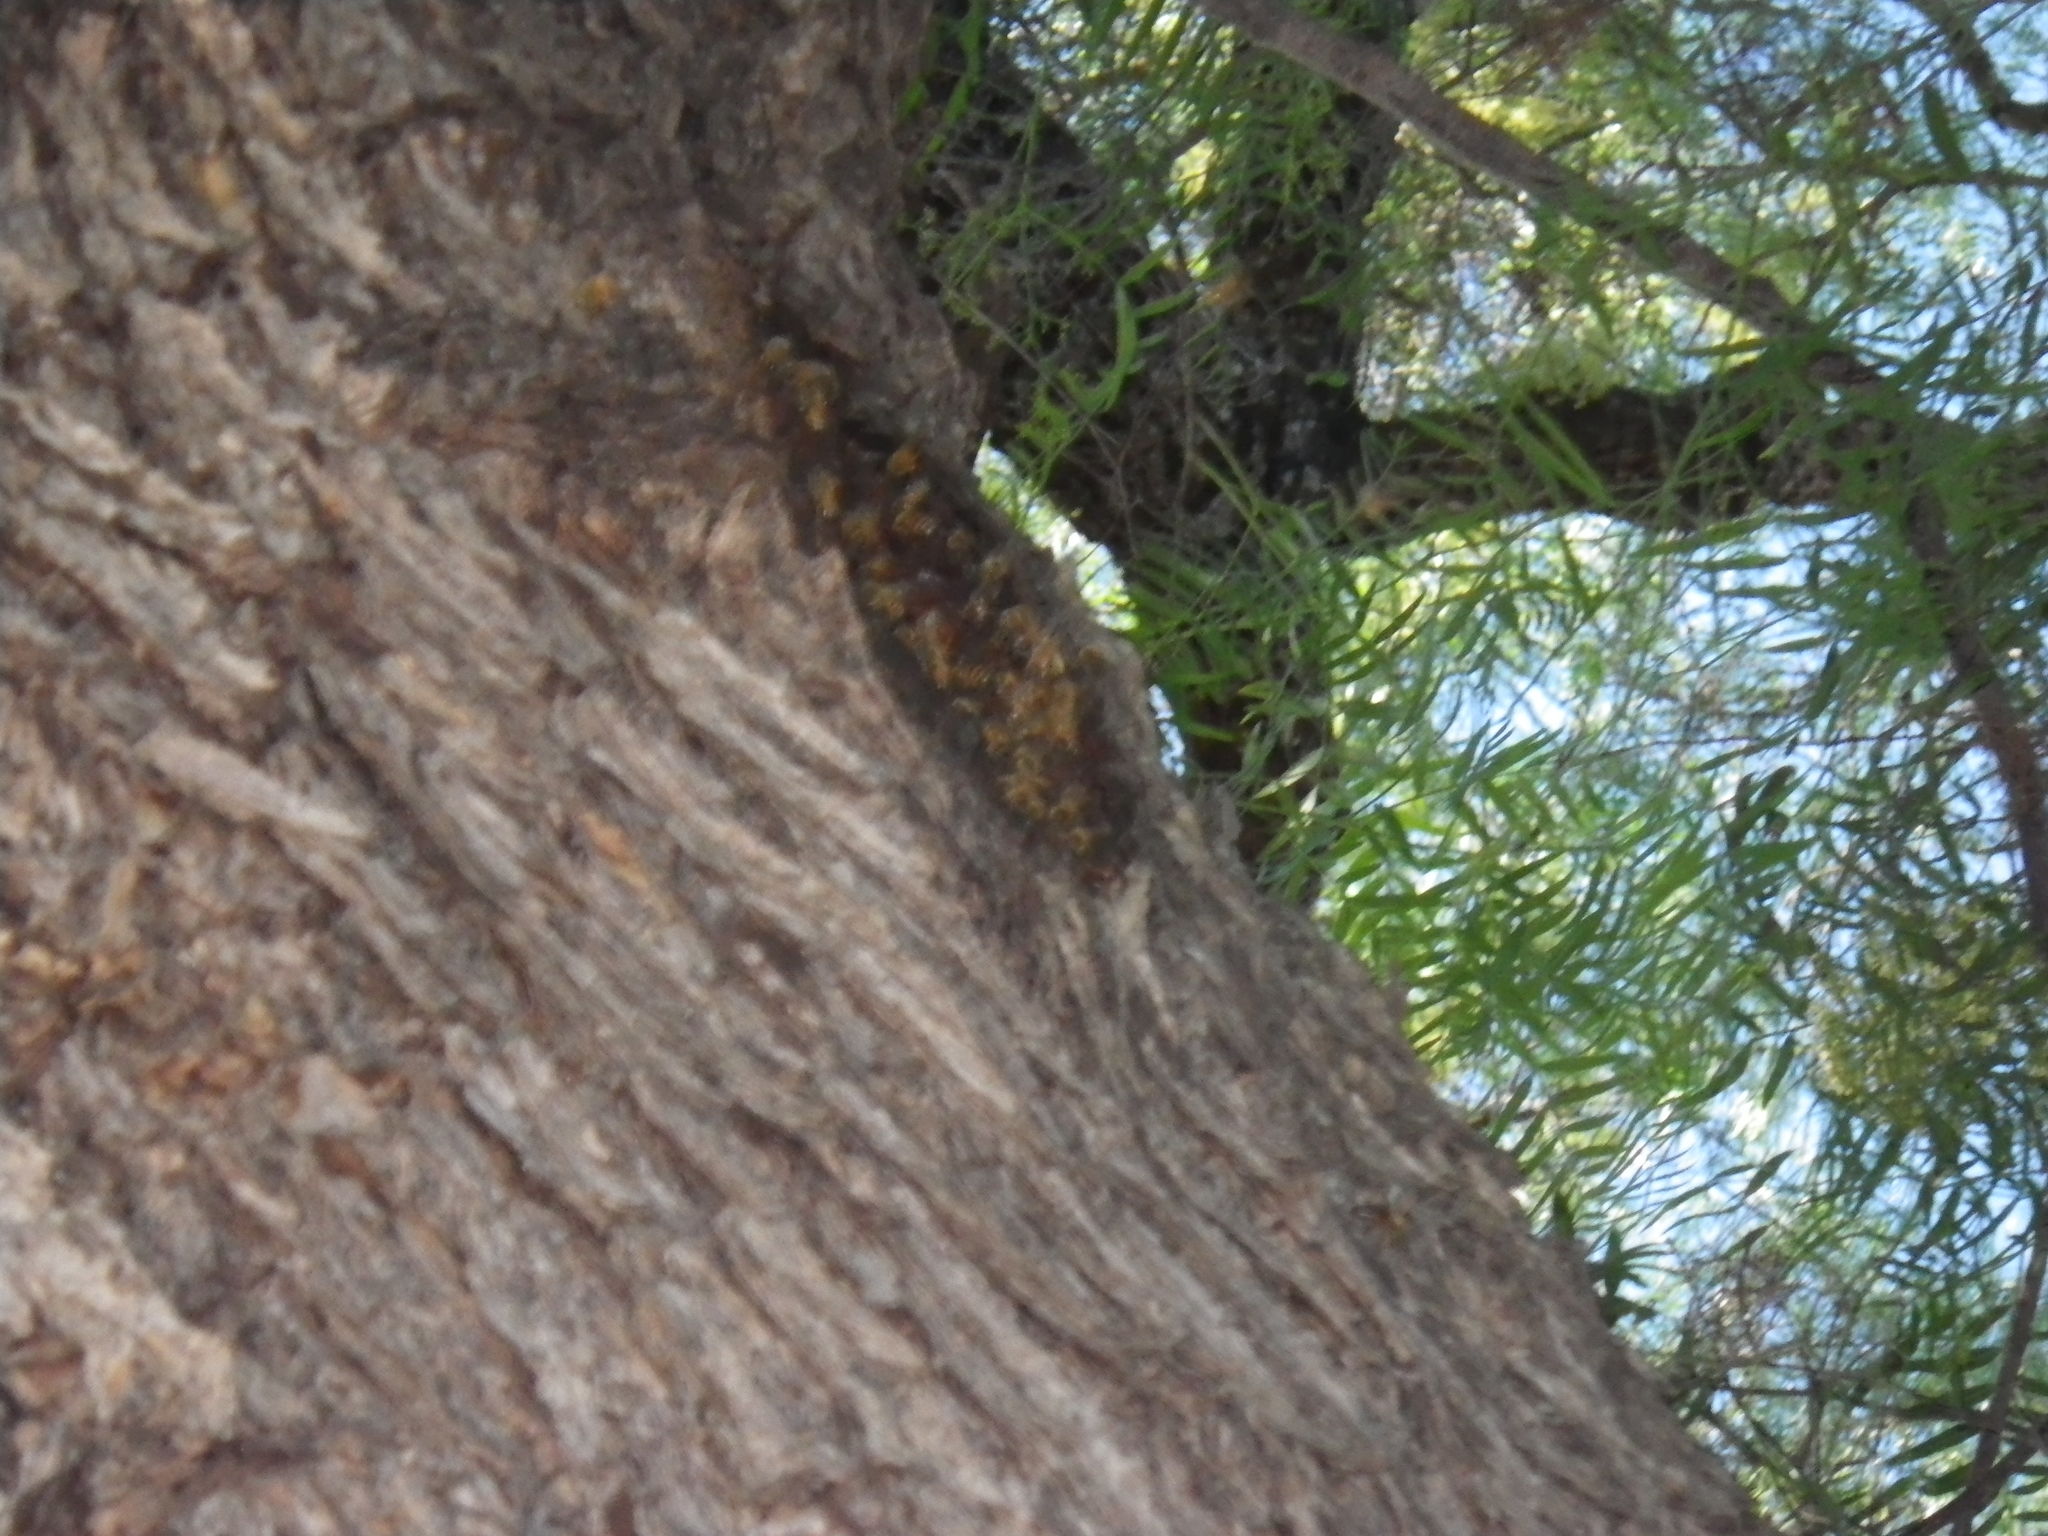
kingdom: Animalia
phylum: Arthropoda
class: Insecta
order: Hymenoptera
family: Apidae
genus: Apis
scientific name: Apis mellifera
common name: Honey bee
